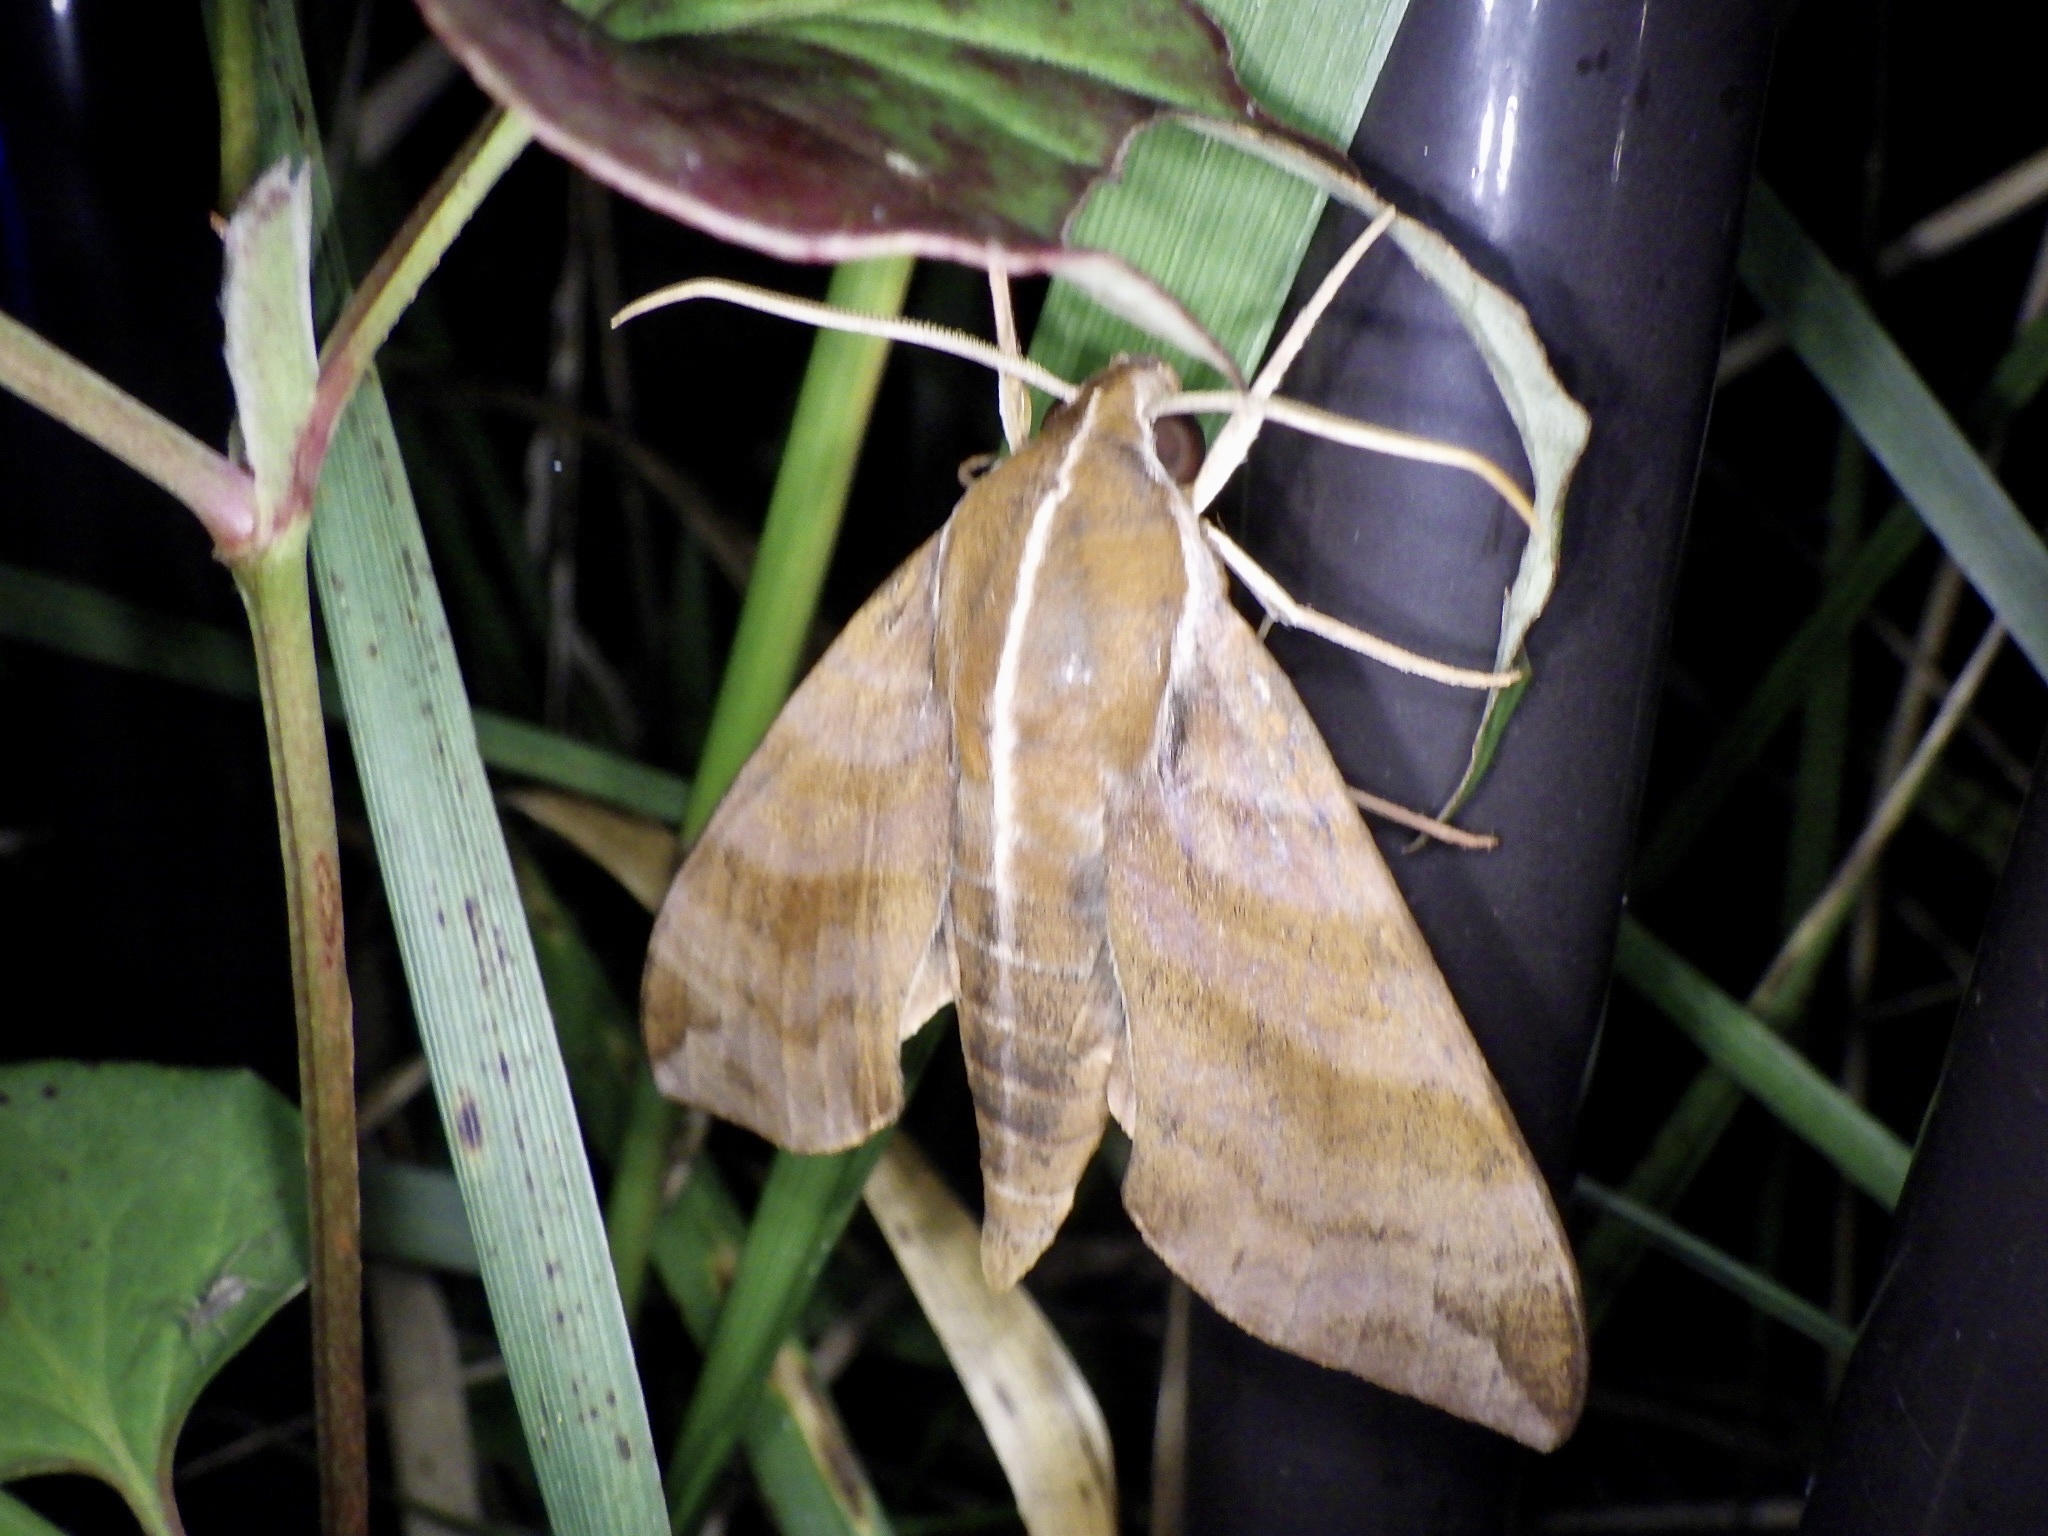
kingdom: Animalia
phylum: Arthropoda
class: Insecta
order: Lepidoptera
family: Sphingidae
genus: Ampelophaga
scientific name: Ampelophaga rubiginosa
